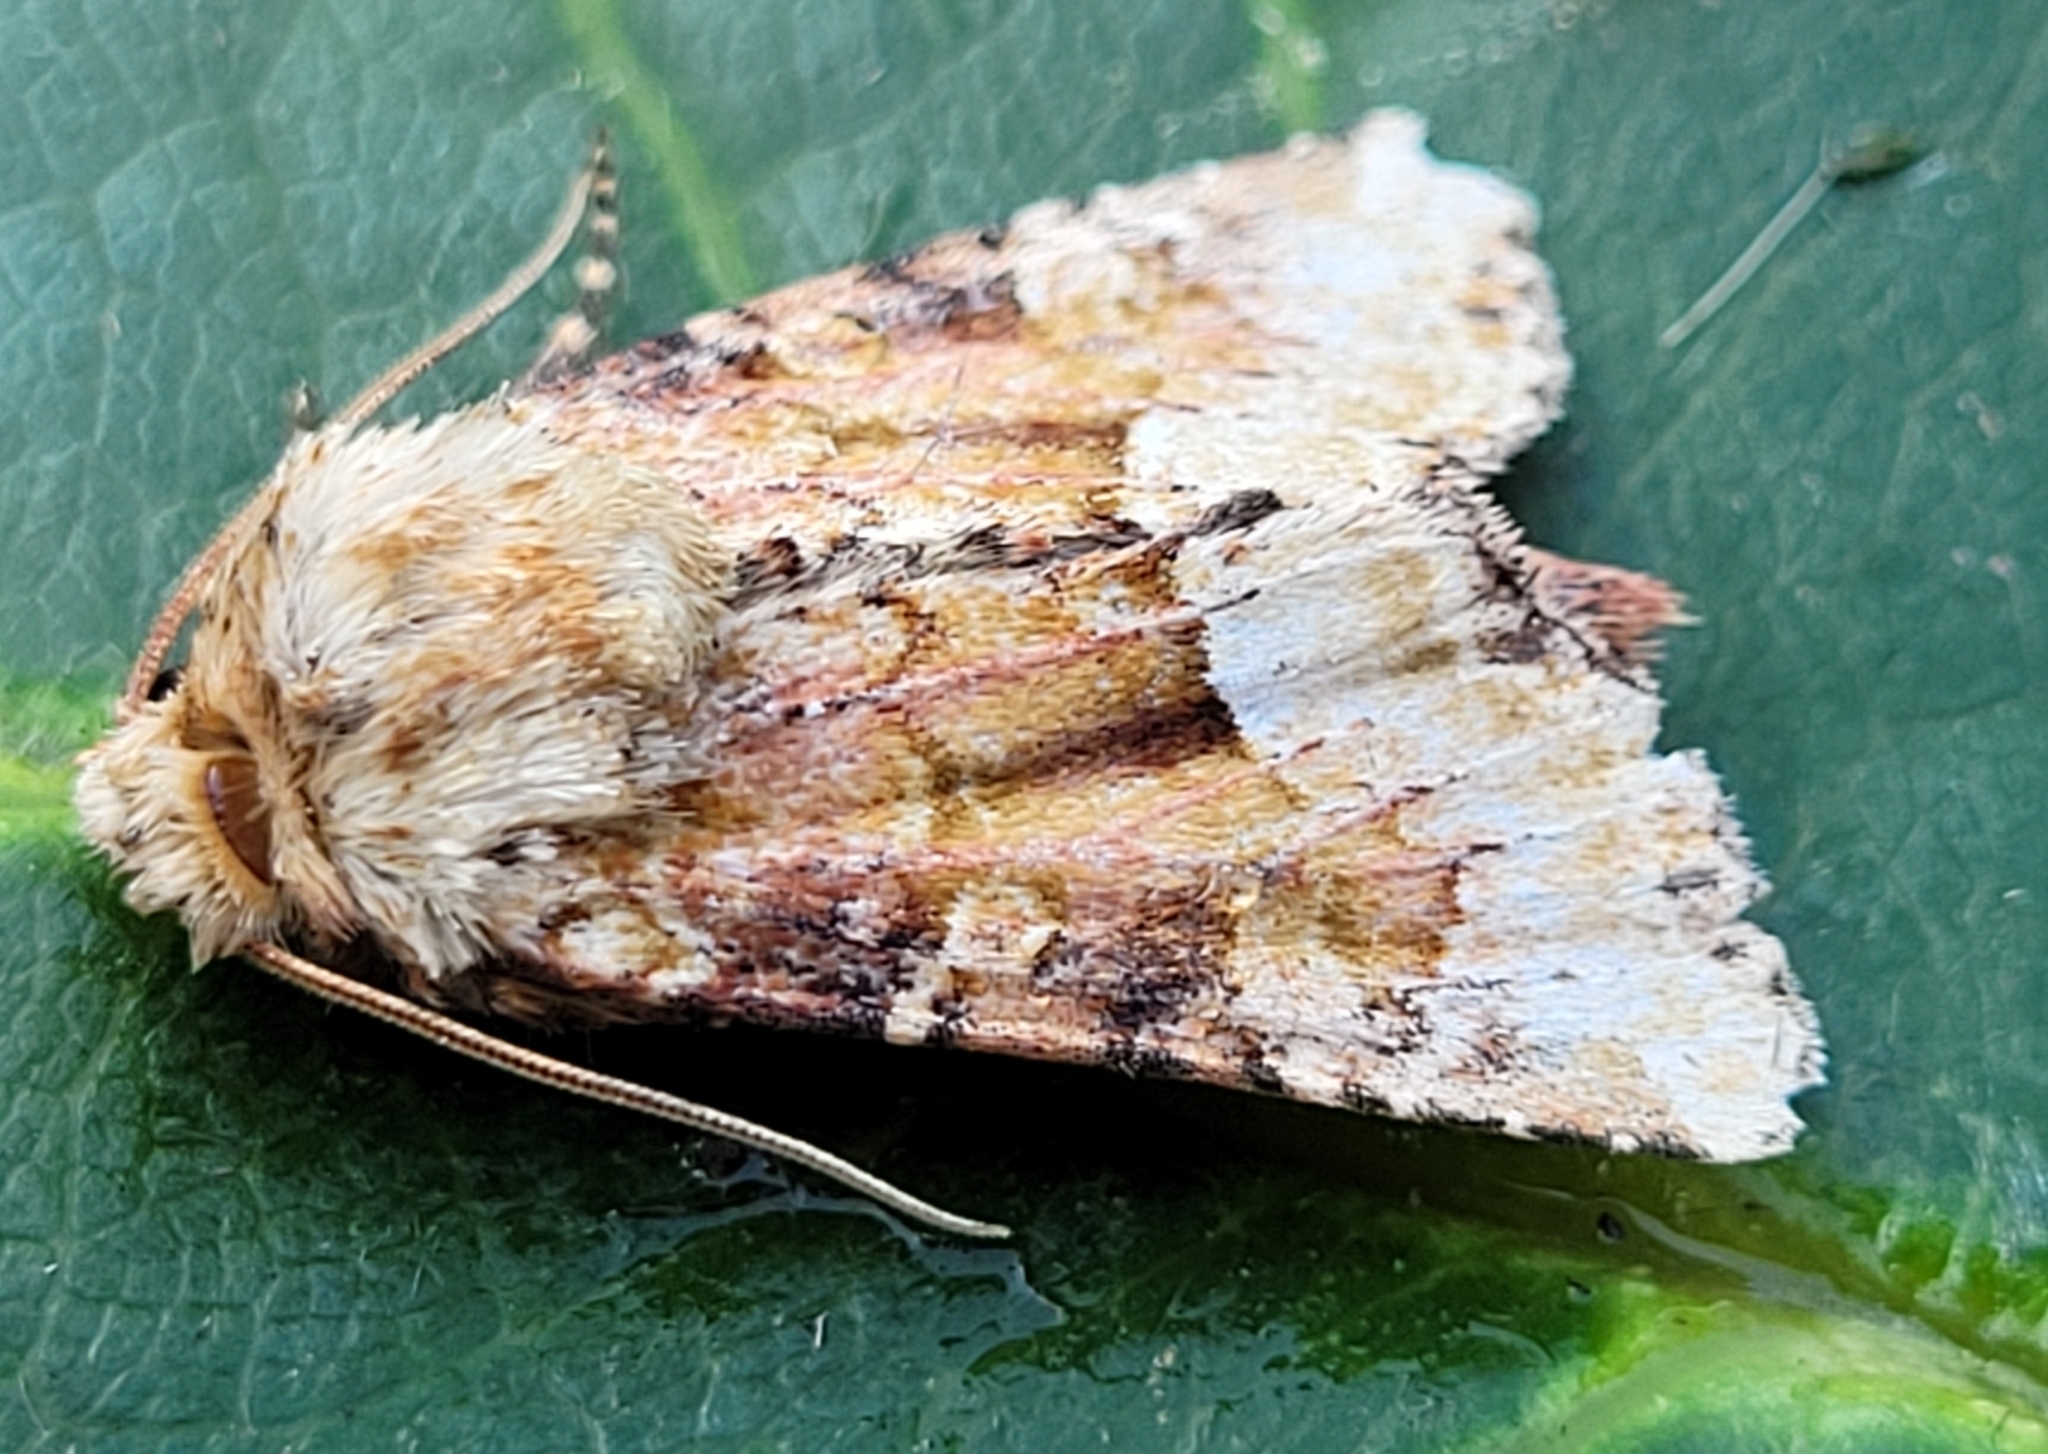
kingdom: Animalia
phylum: Arthropoda
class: Insecta
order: Lepidoptera
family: Noctuidae
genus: Oligia
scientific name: Oligia egens
